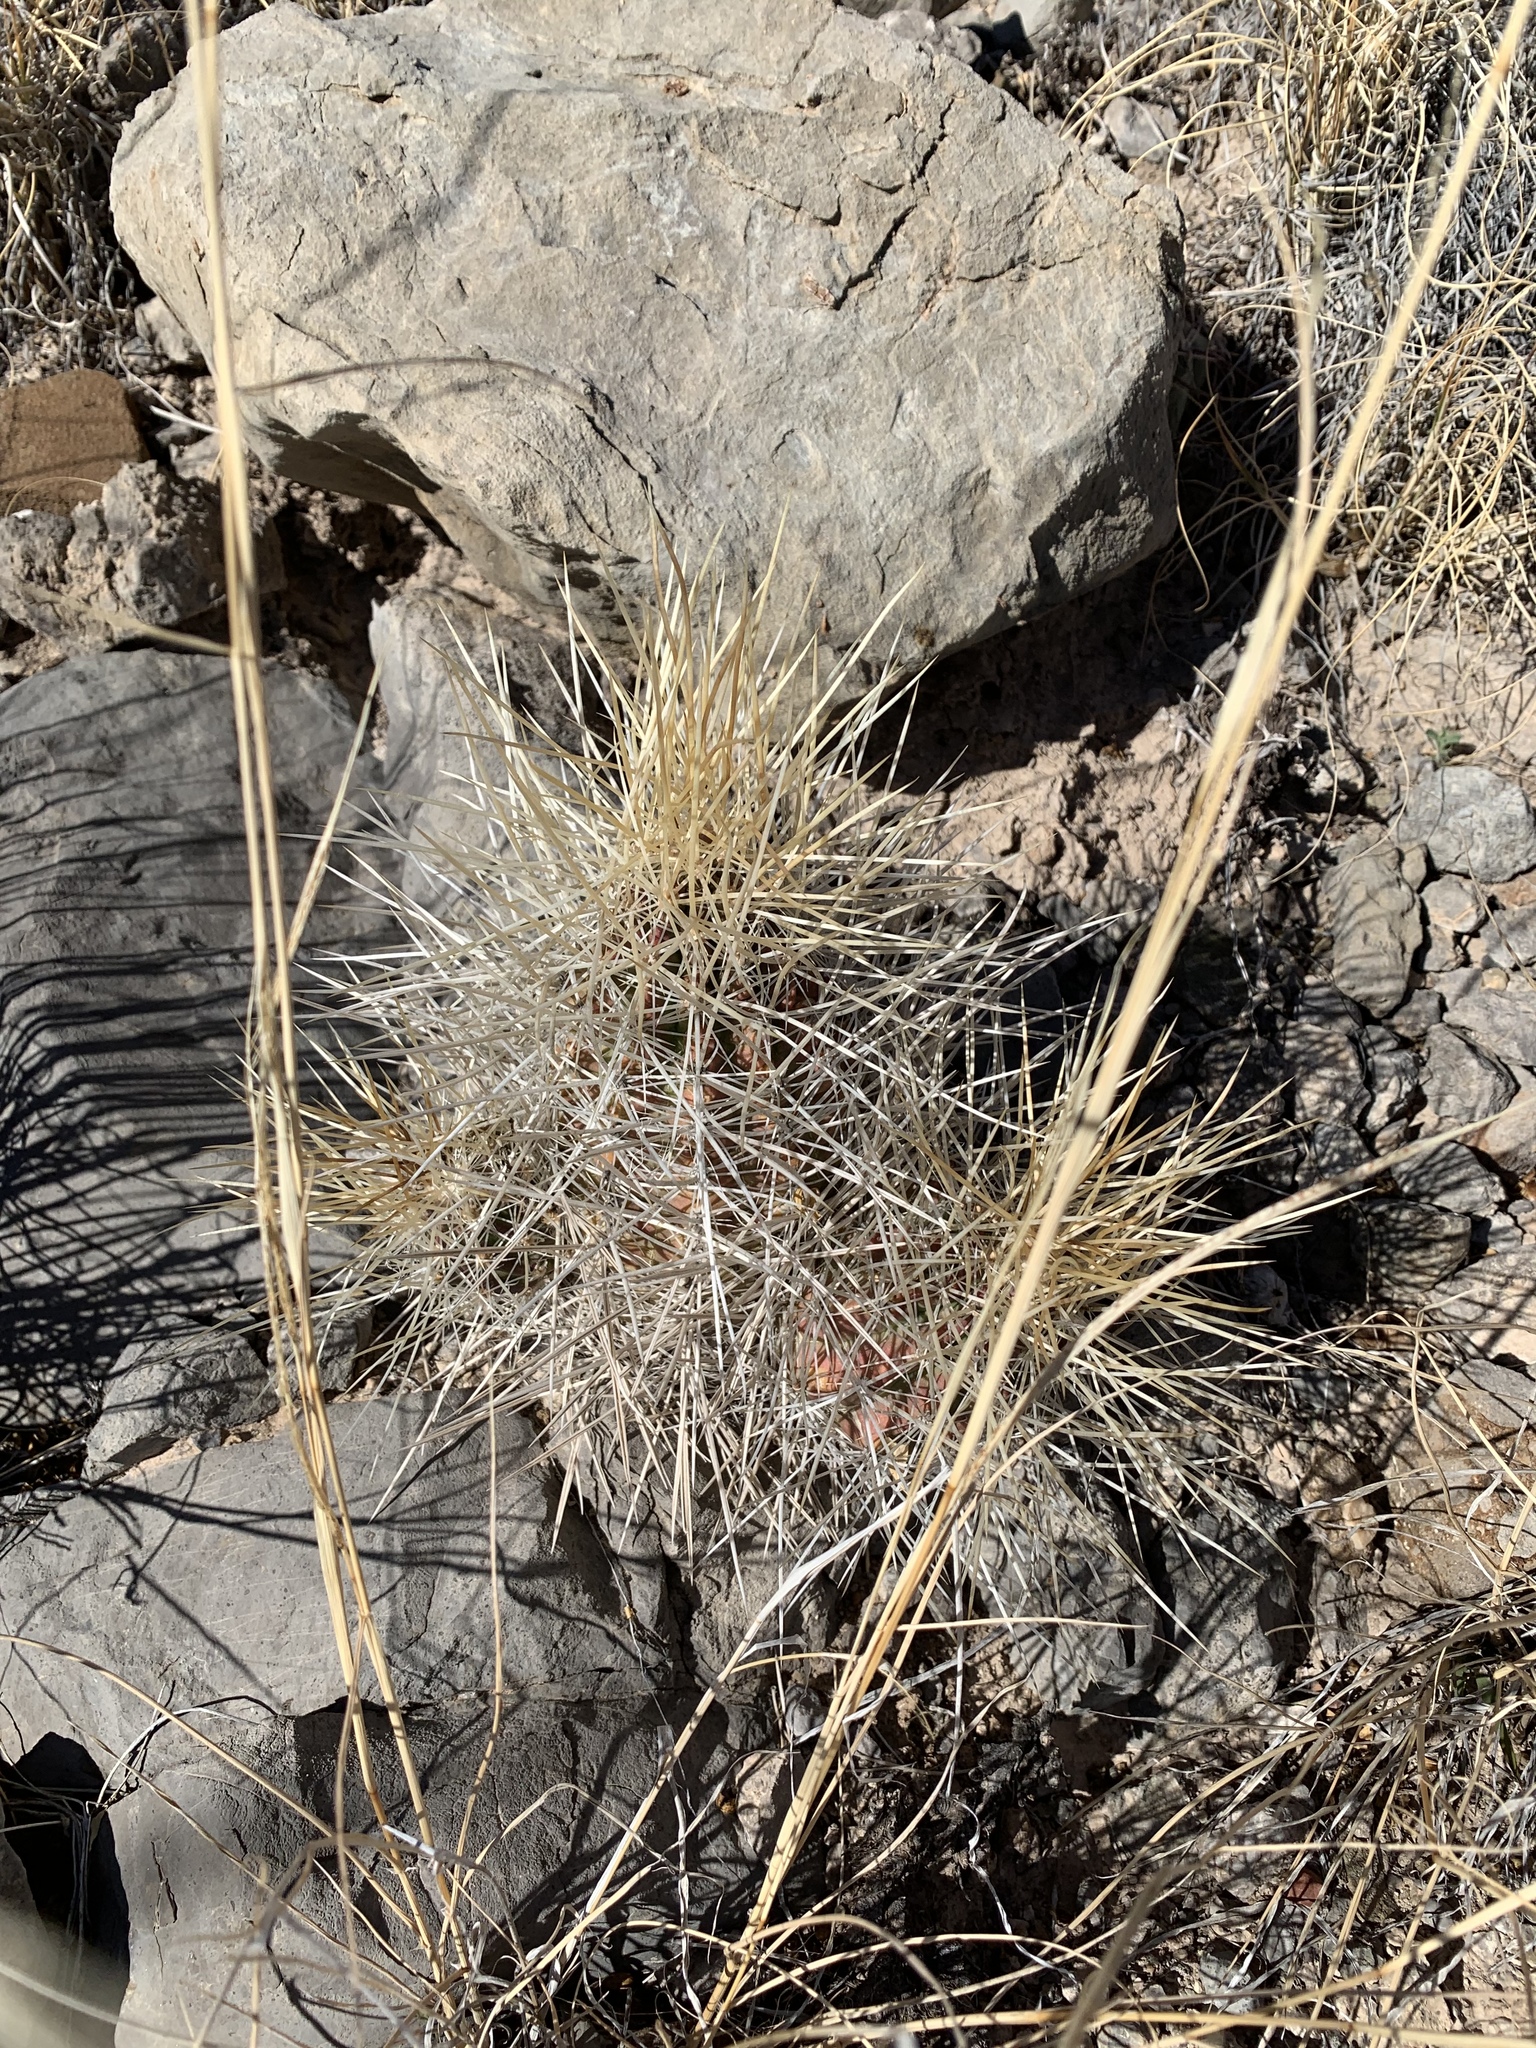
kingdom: Plantae
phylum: Tracheophyta
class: Magnoliopsida
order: Caryophyllales
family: Cactaceae
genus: Echinocereus
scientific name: Echinocereus stramineus
